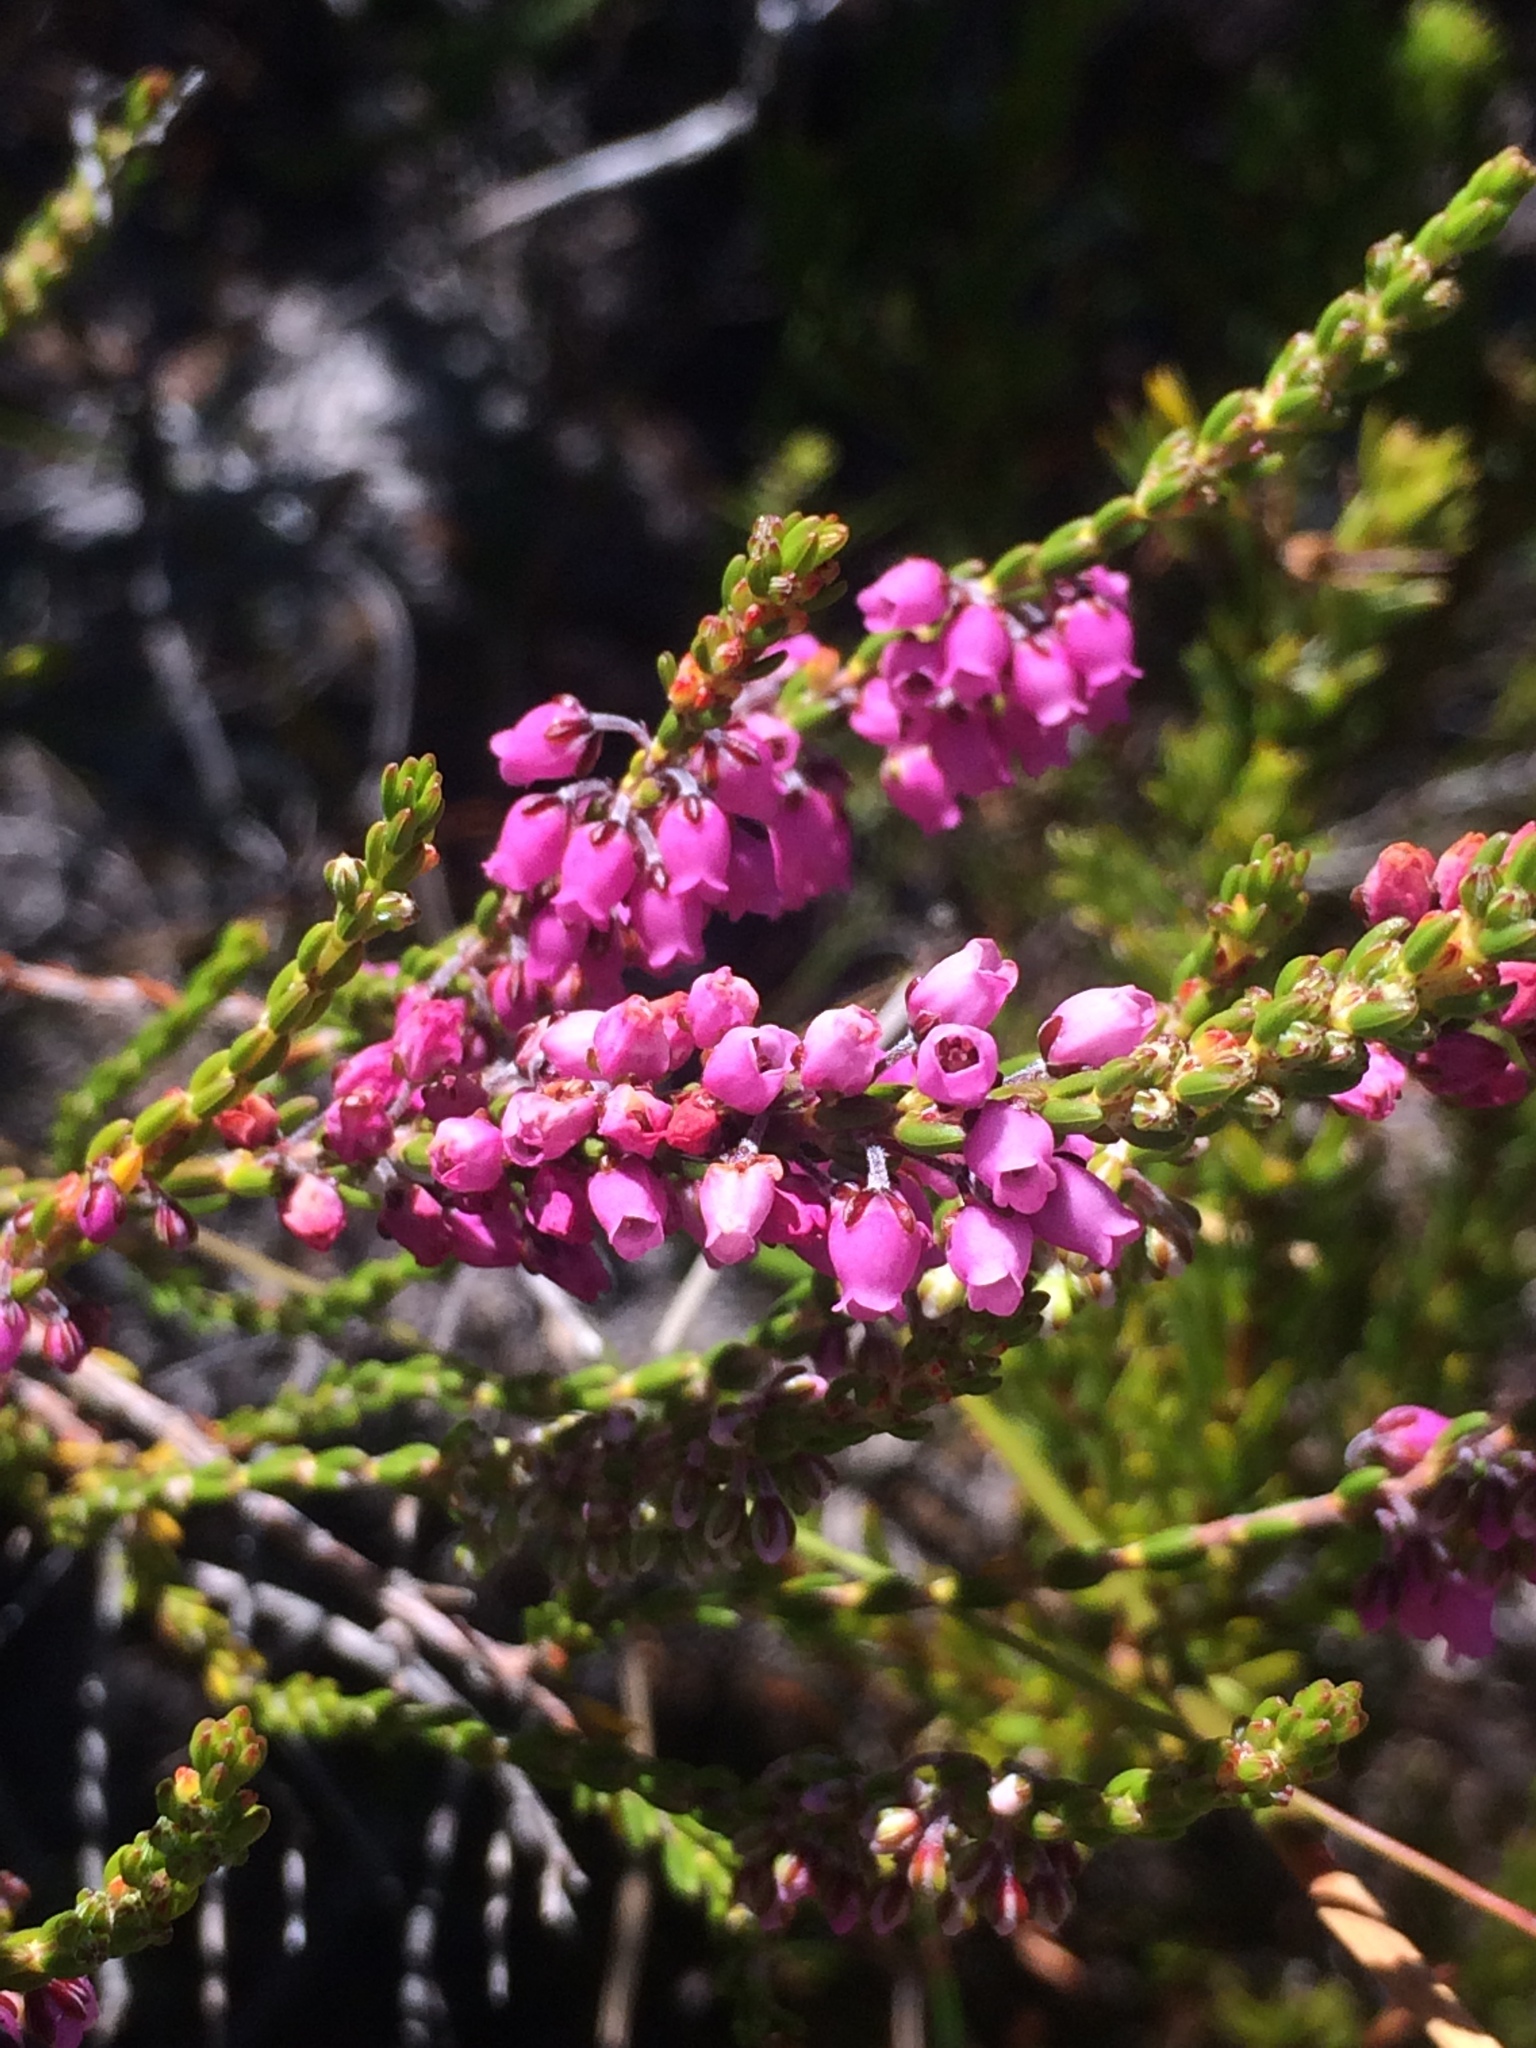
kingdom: Plantae
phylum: Tracheophyta
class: Magnoliopsida
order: Ericales
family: Ericaceae
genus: Erica
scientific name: Erica pulchella
